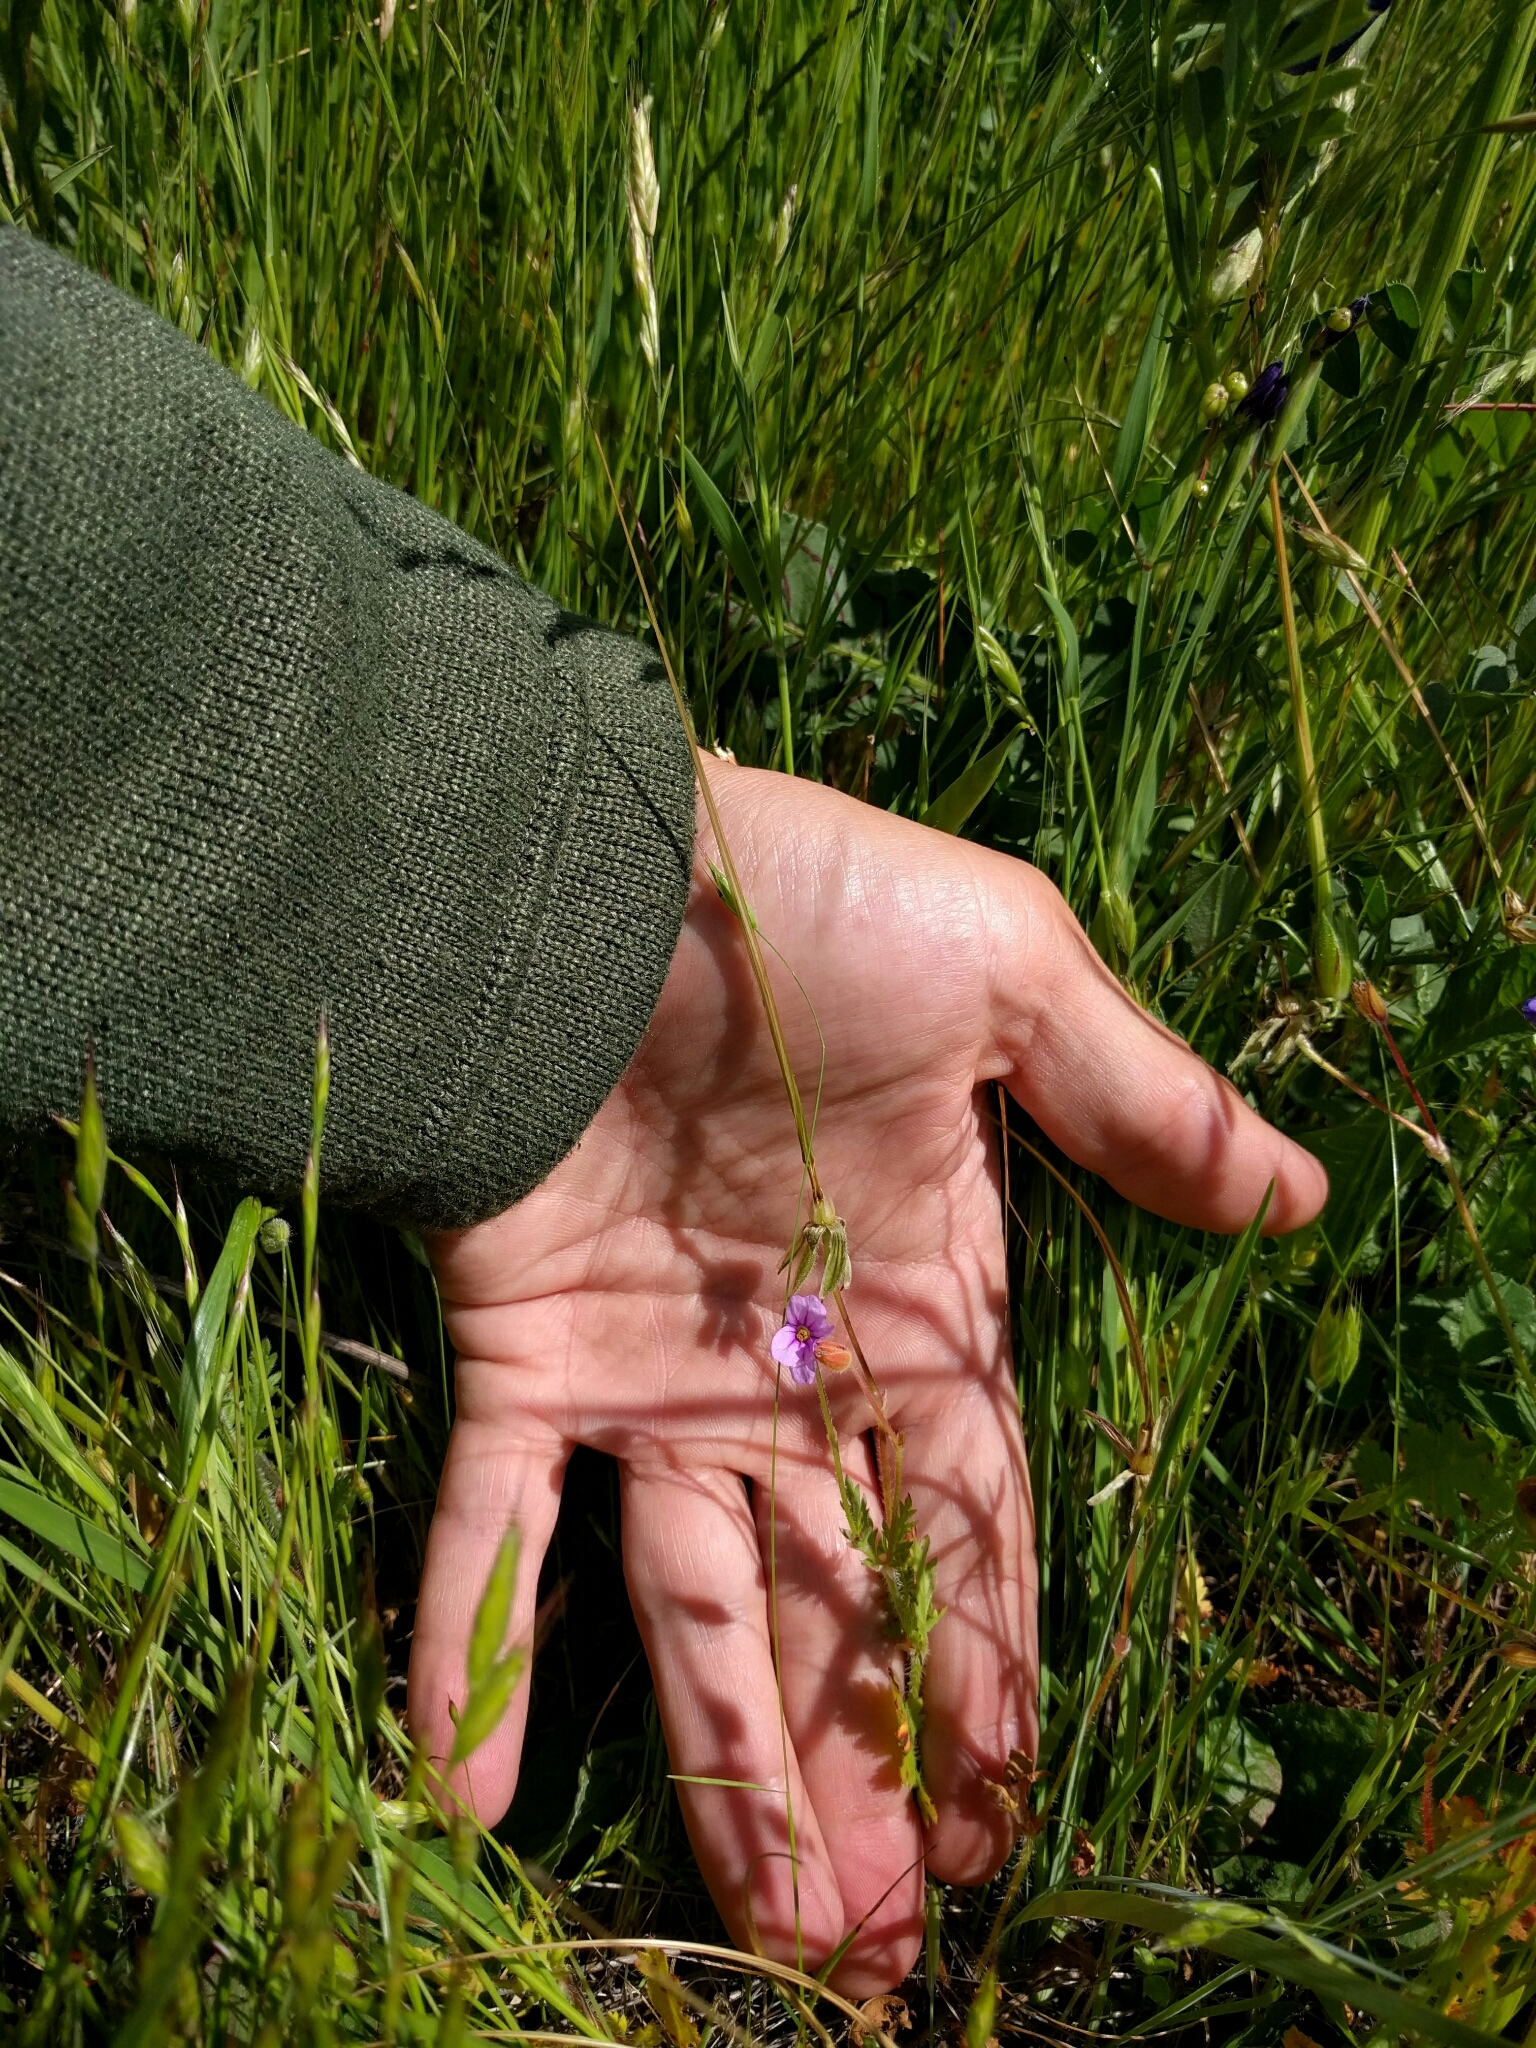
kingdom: Plantae
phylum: Tracheophyta
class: Magnoliopsida
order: Geraniales
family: Geraniaceae
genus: Erodium
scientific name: Erodium botrys
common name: Mediterranean stork's-bill
